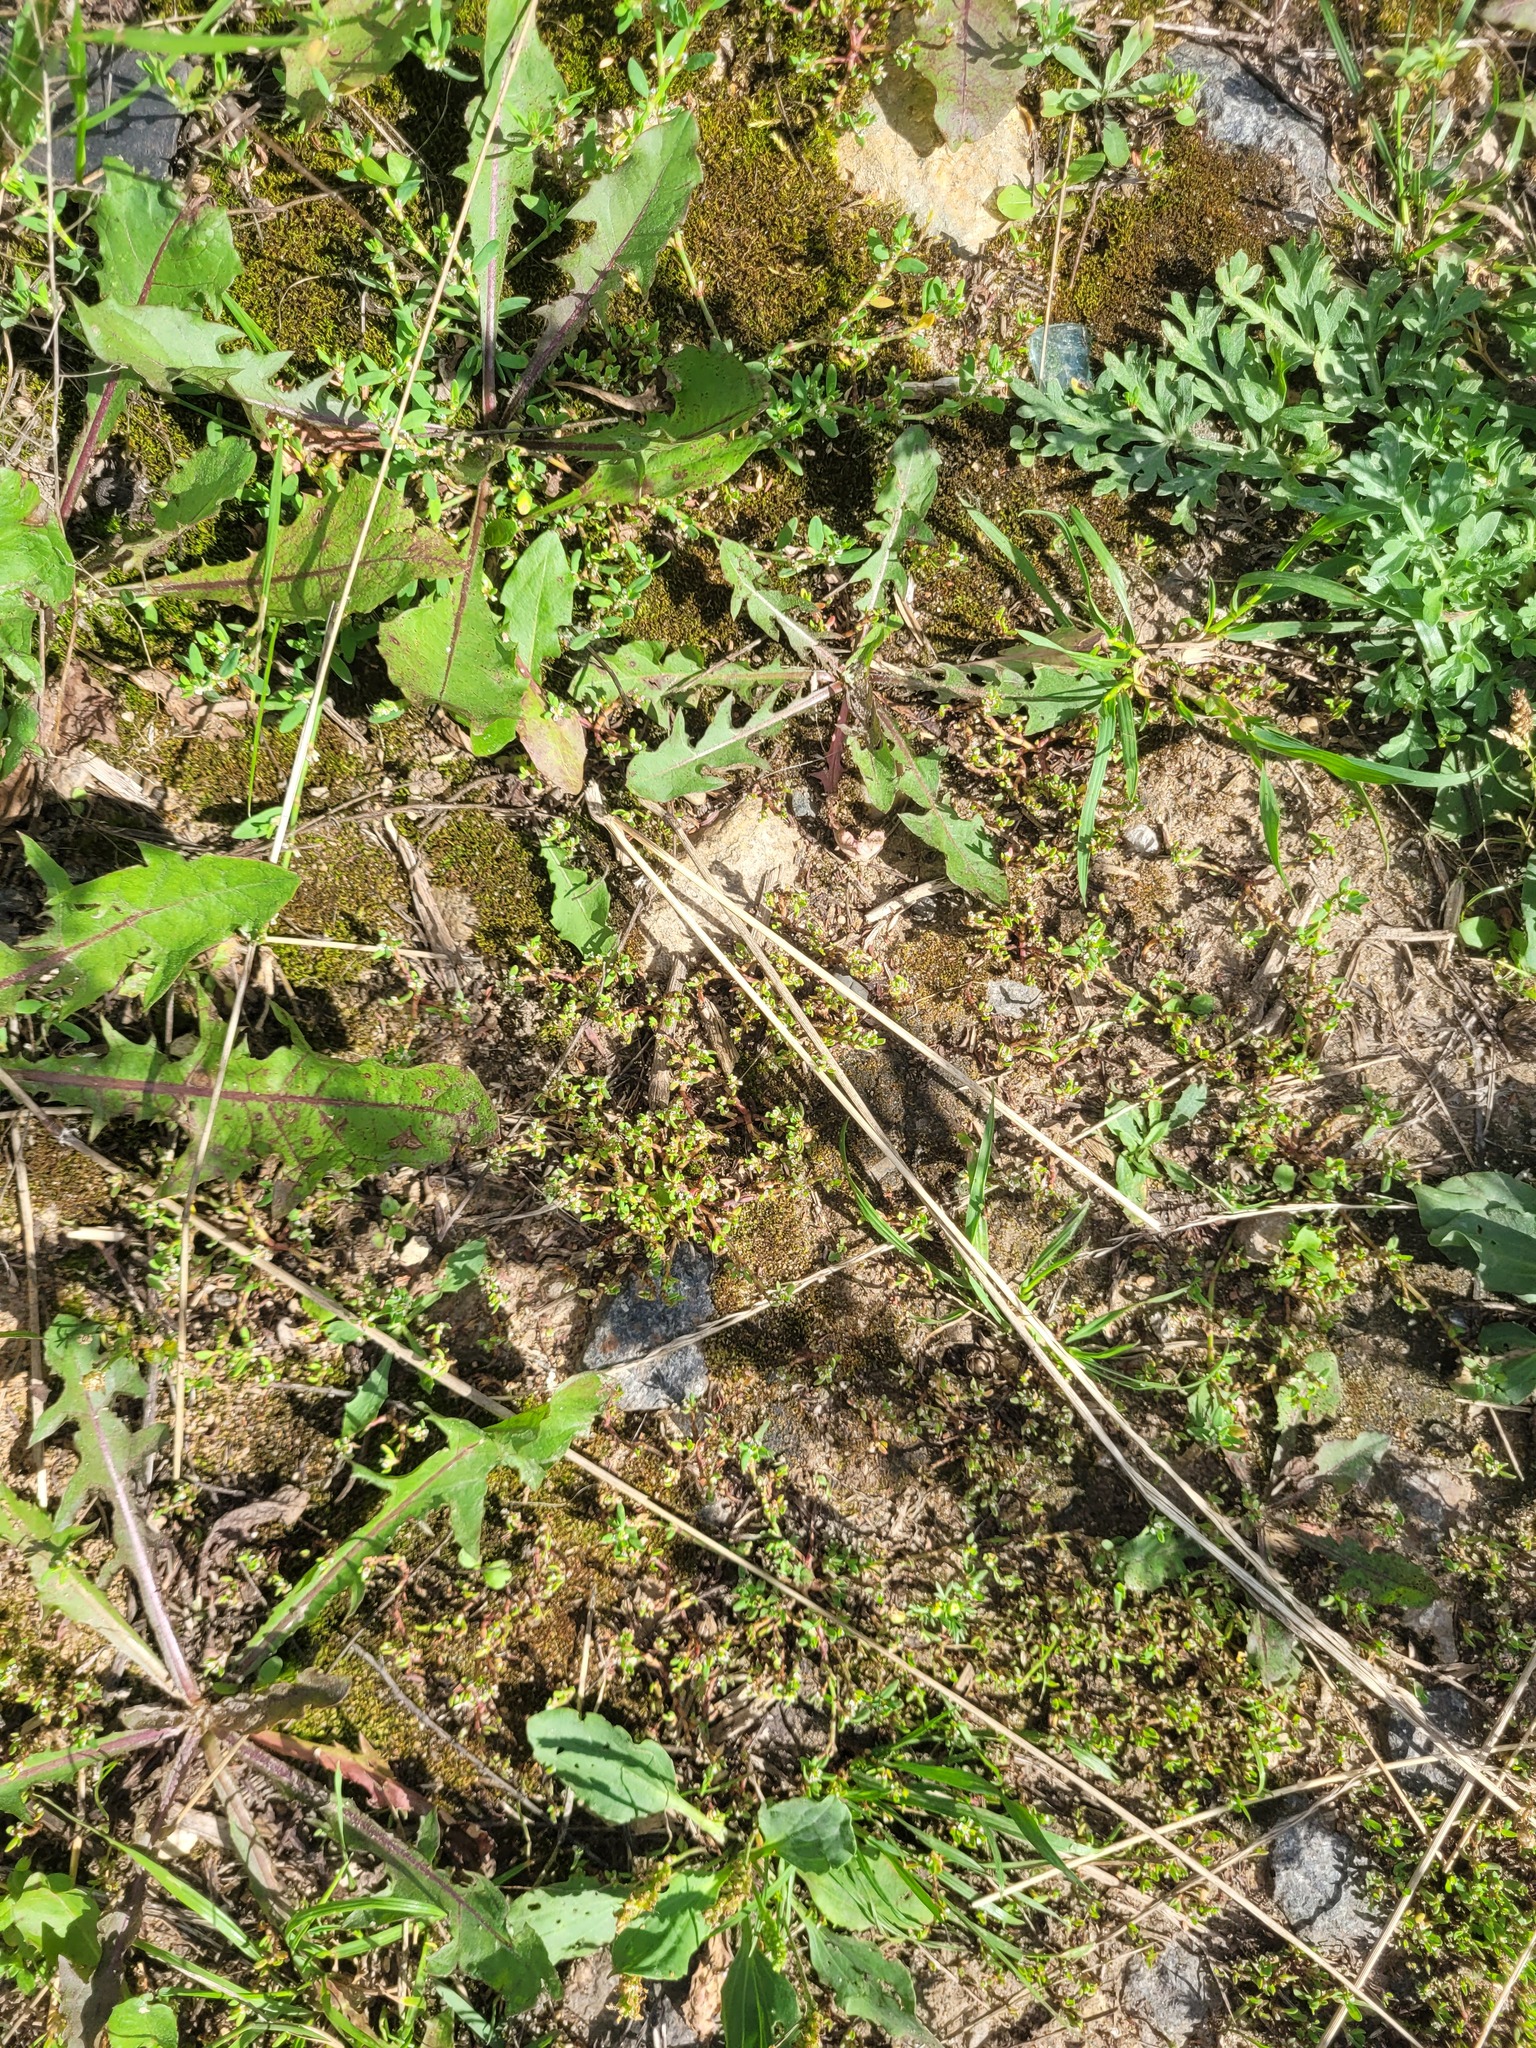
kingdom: Plantae
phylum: Tracheophyta
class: Magnoliopsida
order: Caryophyllales
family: Polygonaceae
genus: Polygonum
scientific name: Polygonum
